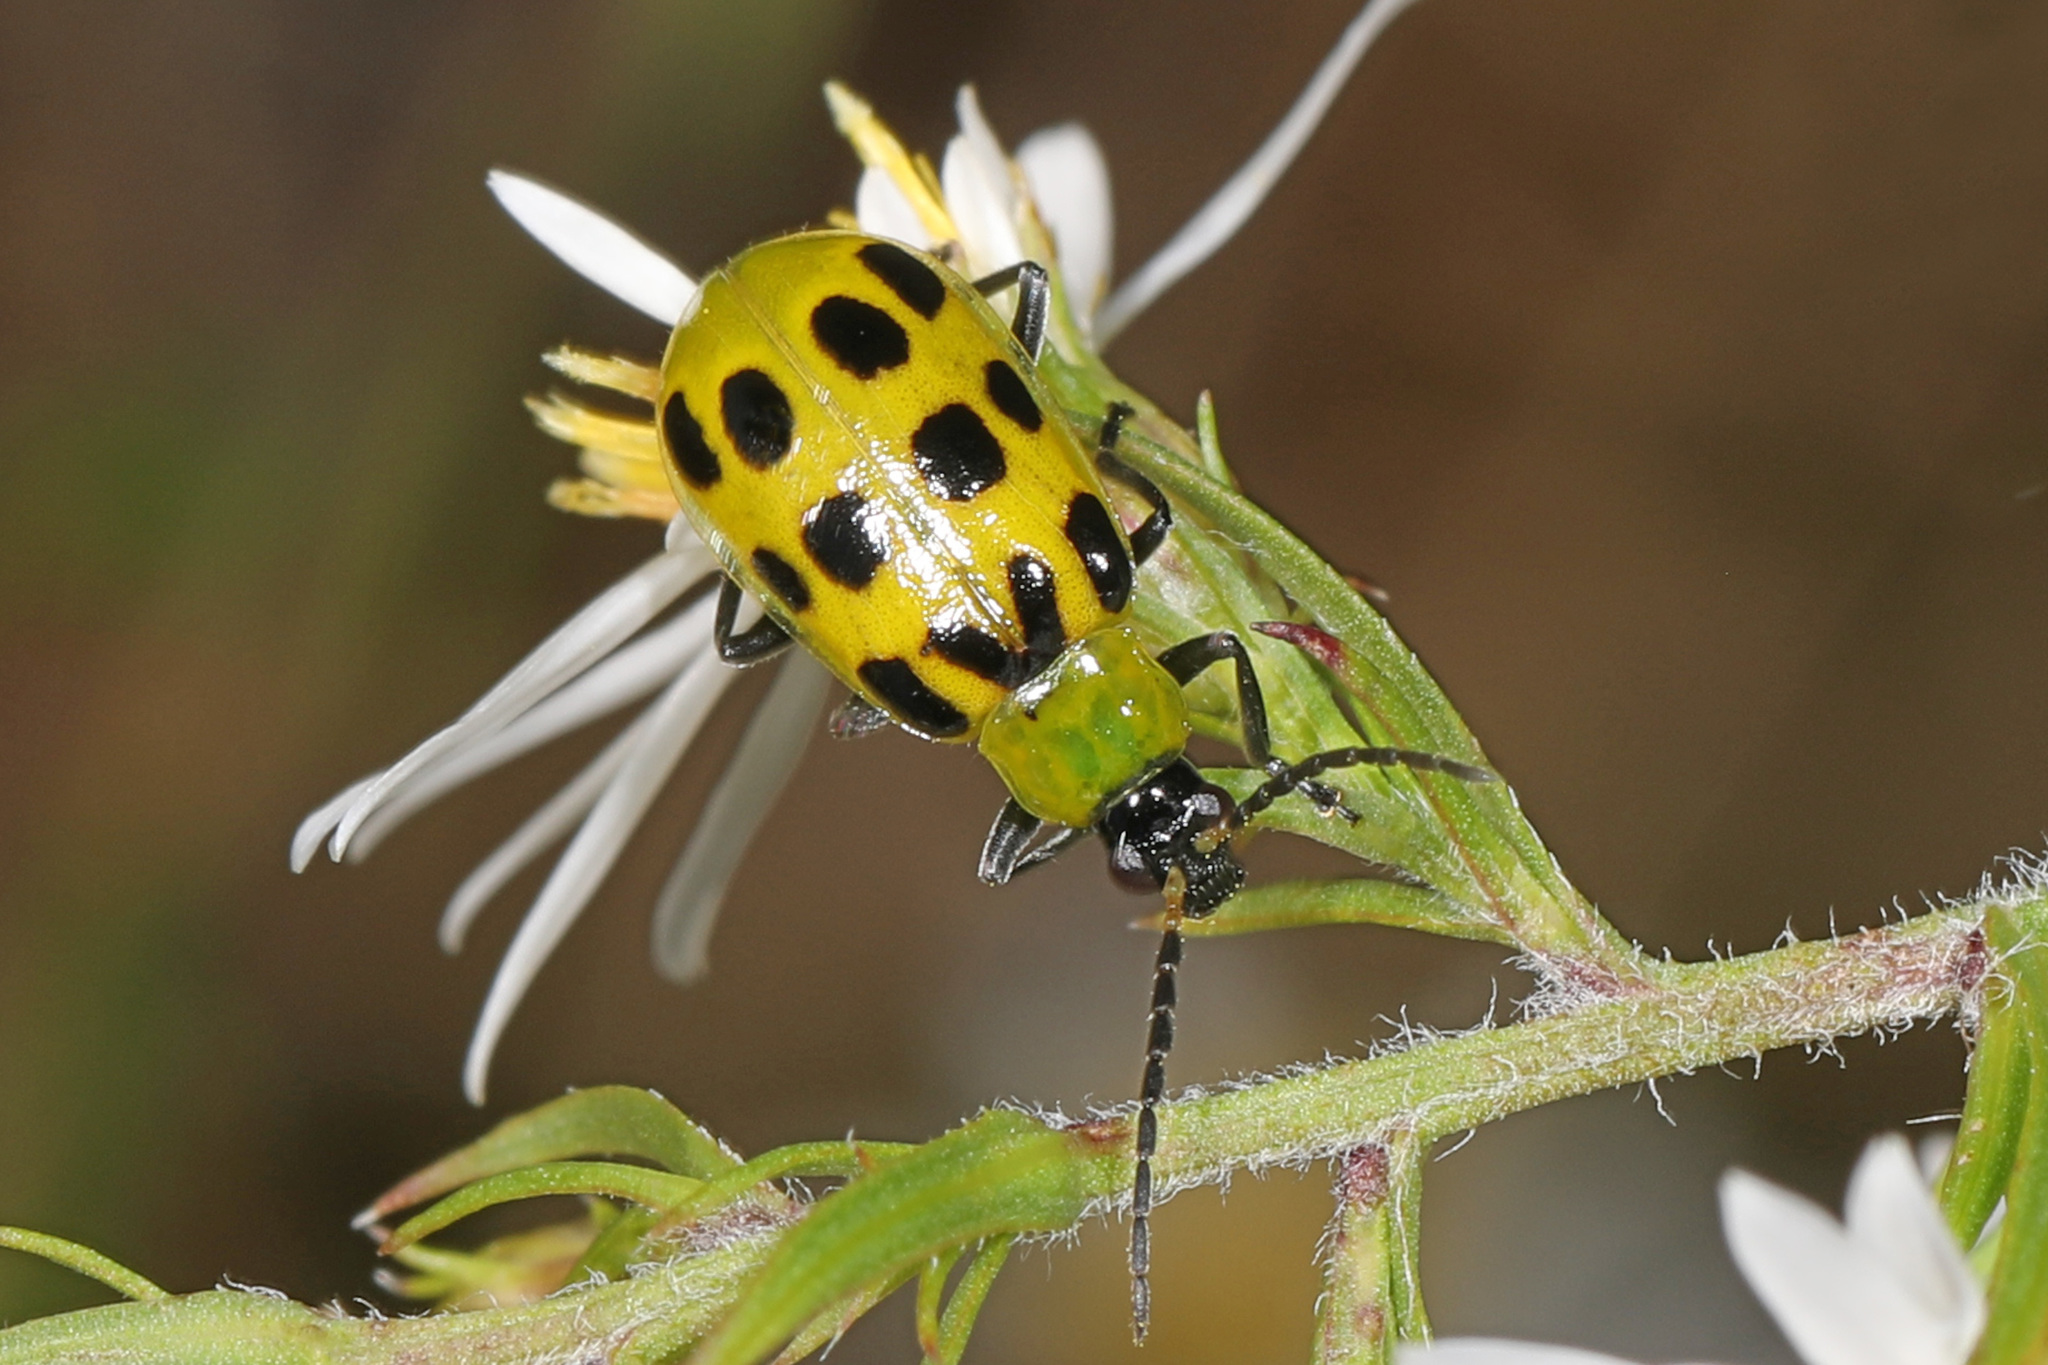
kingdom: Animalia
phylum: Arthropoda
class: Insecta
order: Coleoptera
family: Chrysomelidae
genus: Diabrotica
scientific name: Diabrotica undecimpunctata
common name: Spotted cucumber beetle
